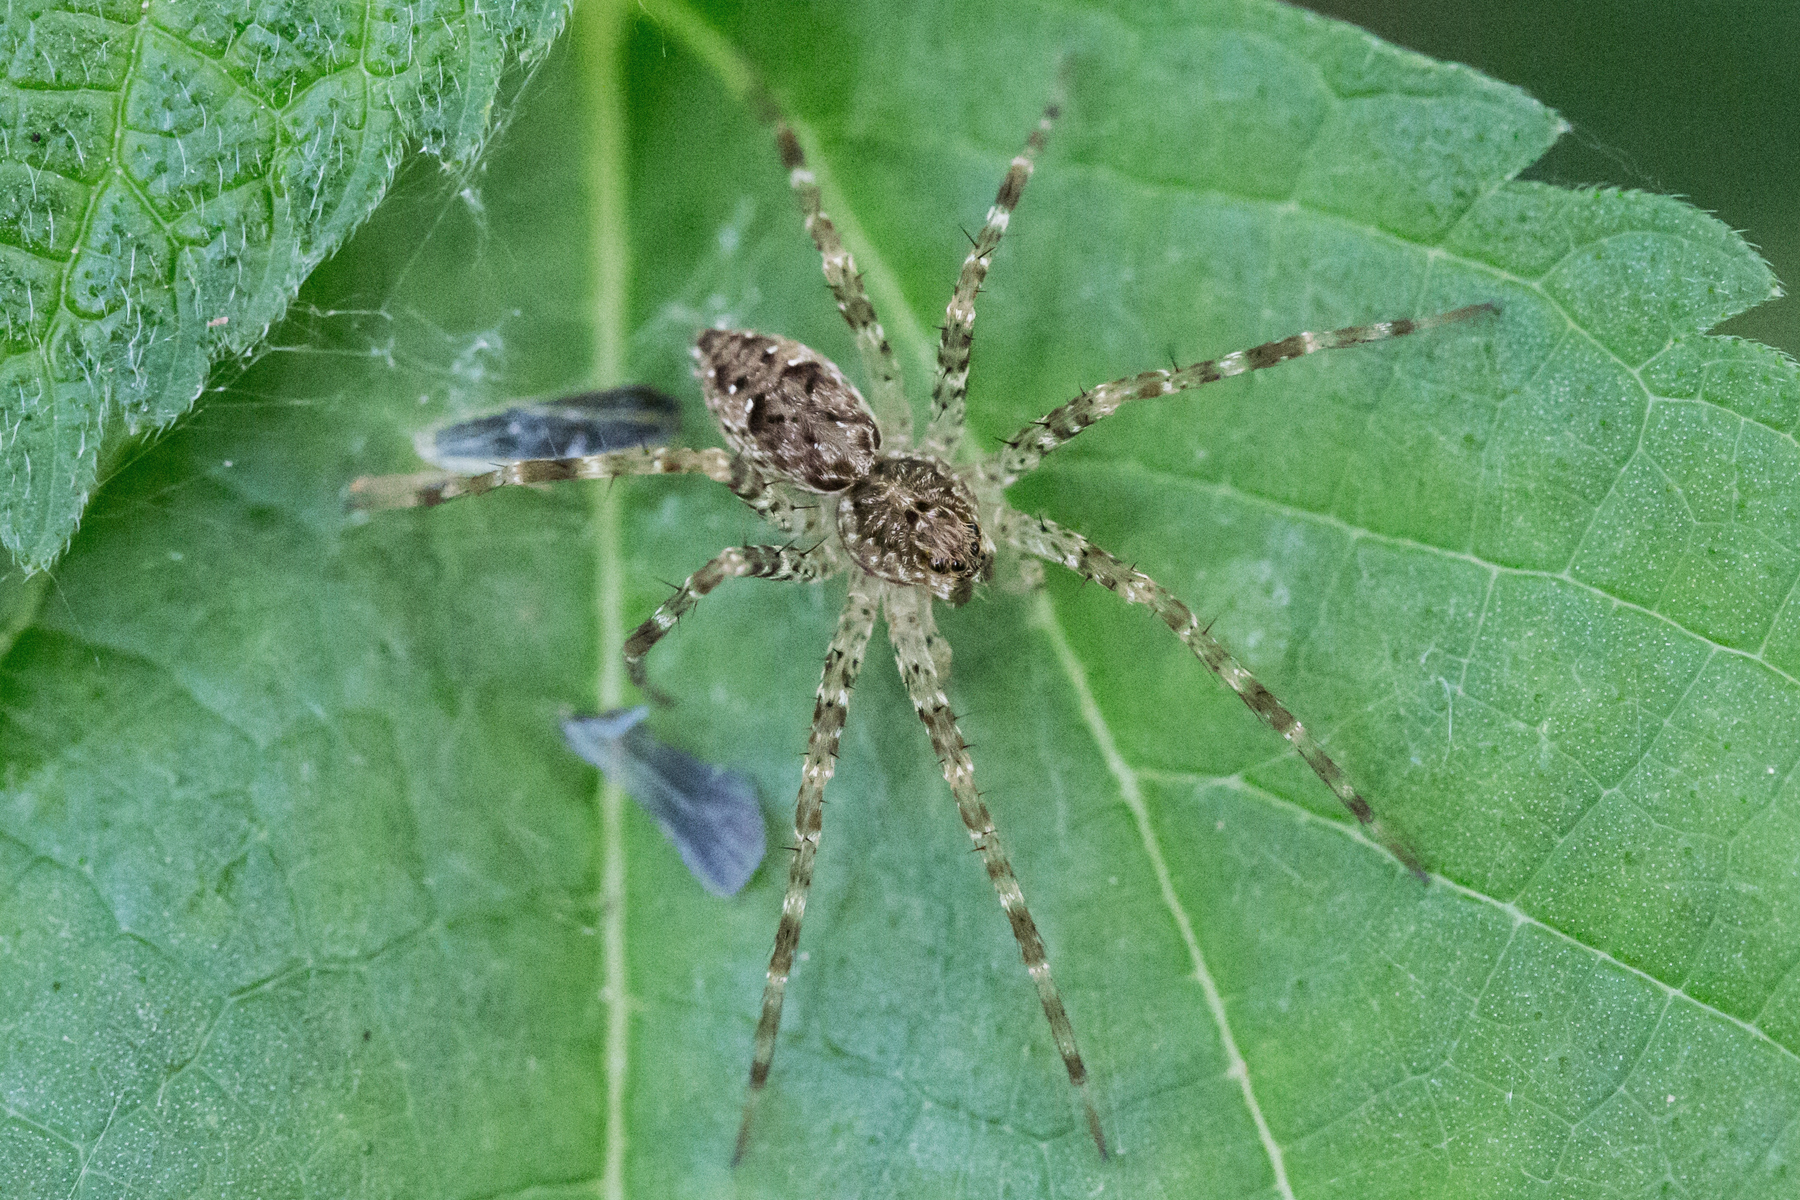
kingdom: Animalia
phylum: Arthropoda
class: Arachnida
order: Araneae
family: Pisauridae
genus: Dolomedes
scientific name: Dolomedes tenebrosus
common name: Dark fishing spider
